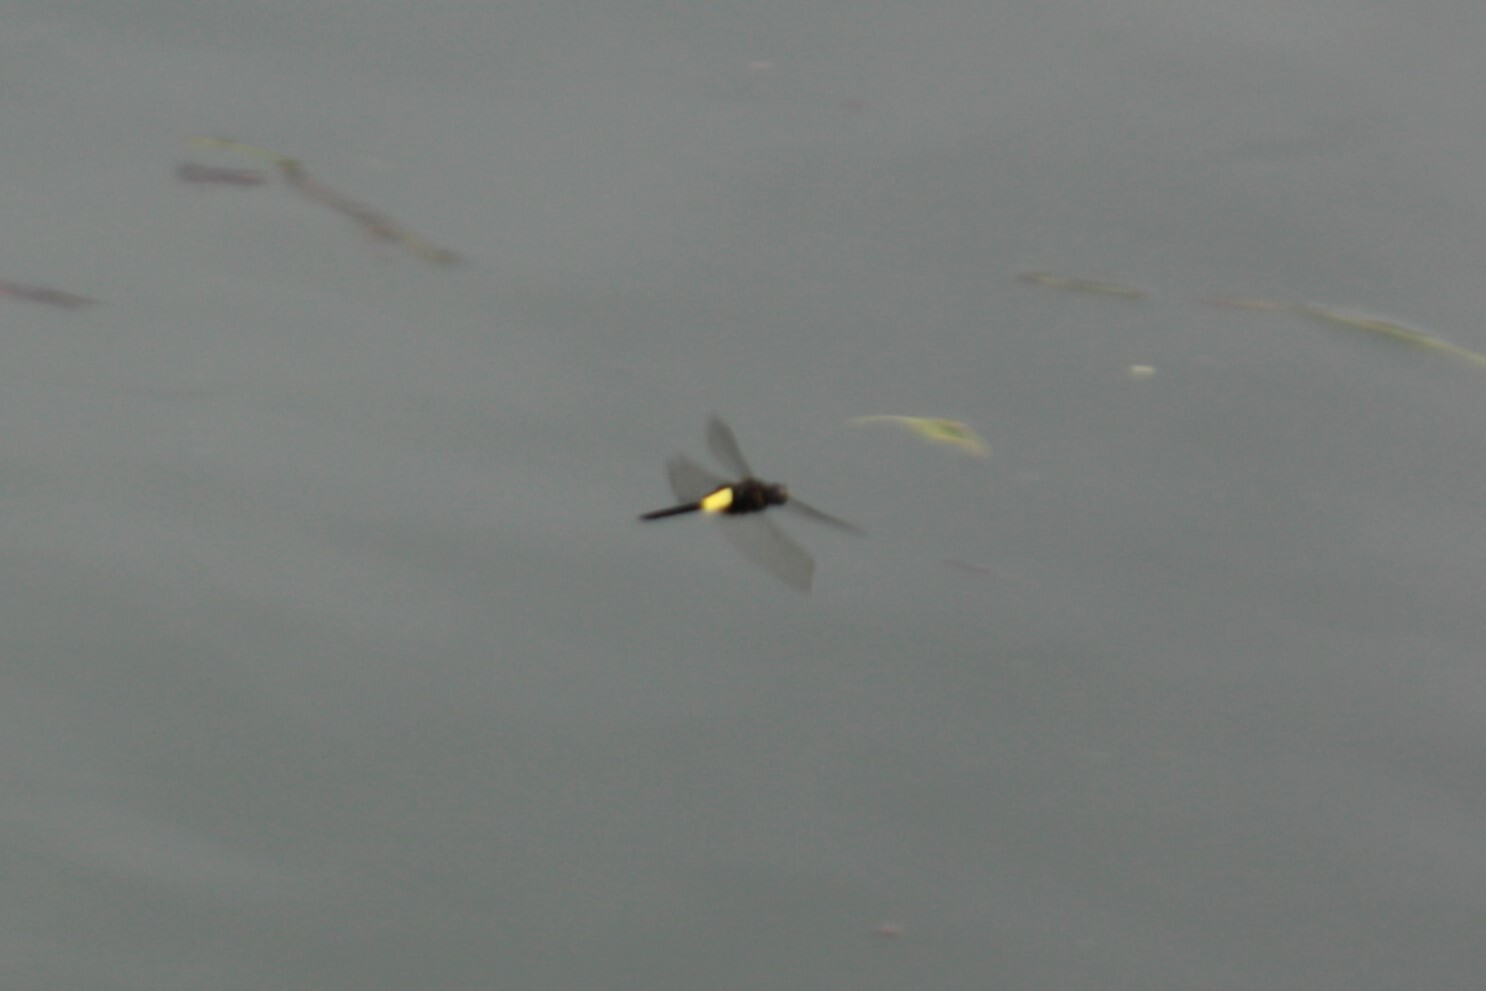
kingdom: Animalia
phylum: Arthropoda
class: Insecta
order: Odonata
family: Libellulidae
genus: Pseudothemis
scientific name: Pseudothemis zonata
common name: Pied skimmer
